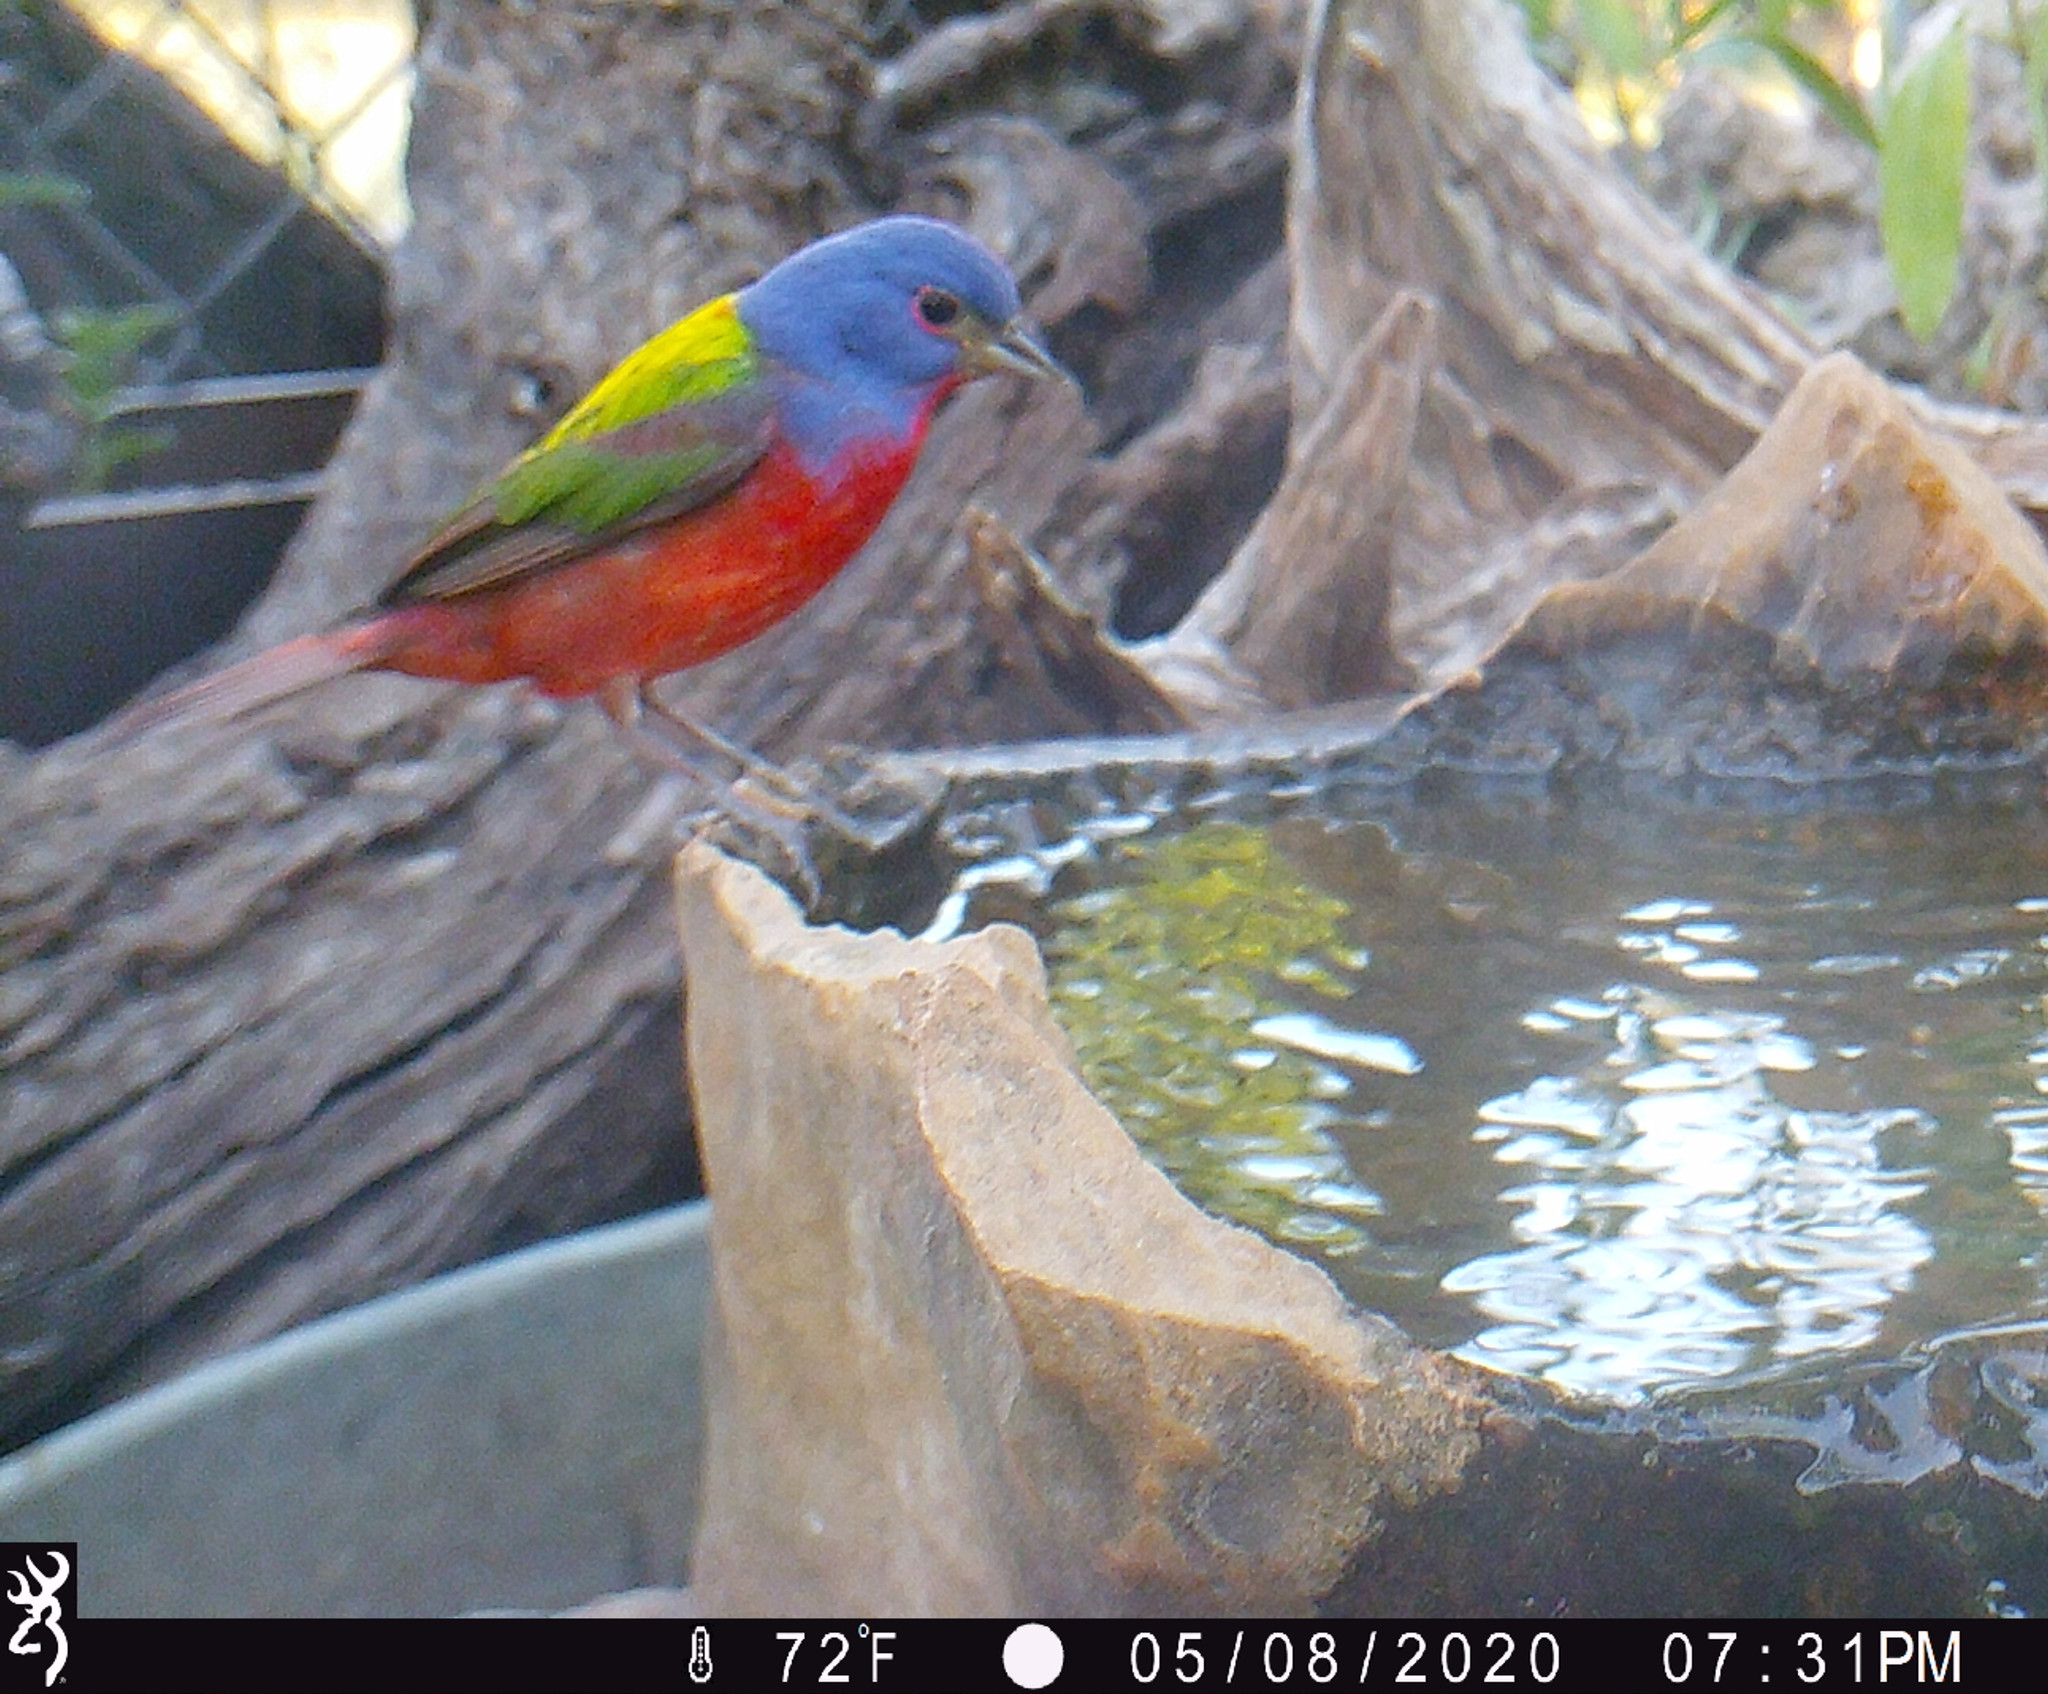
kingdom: Animalia
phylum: Chordata
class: Aves
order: Passeriformes
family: Cardinalidae
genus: Passerina
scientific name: Passerina ciris
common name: Painted bunting
